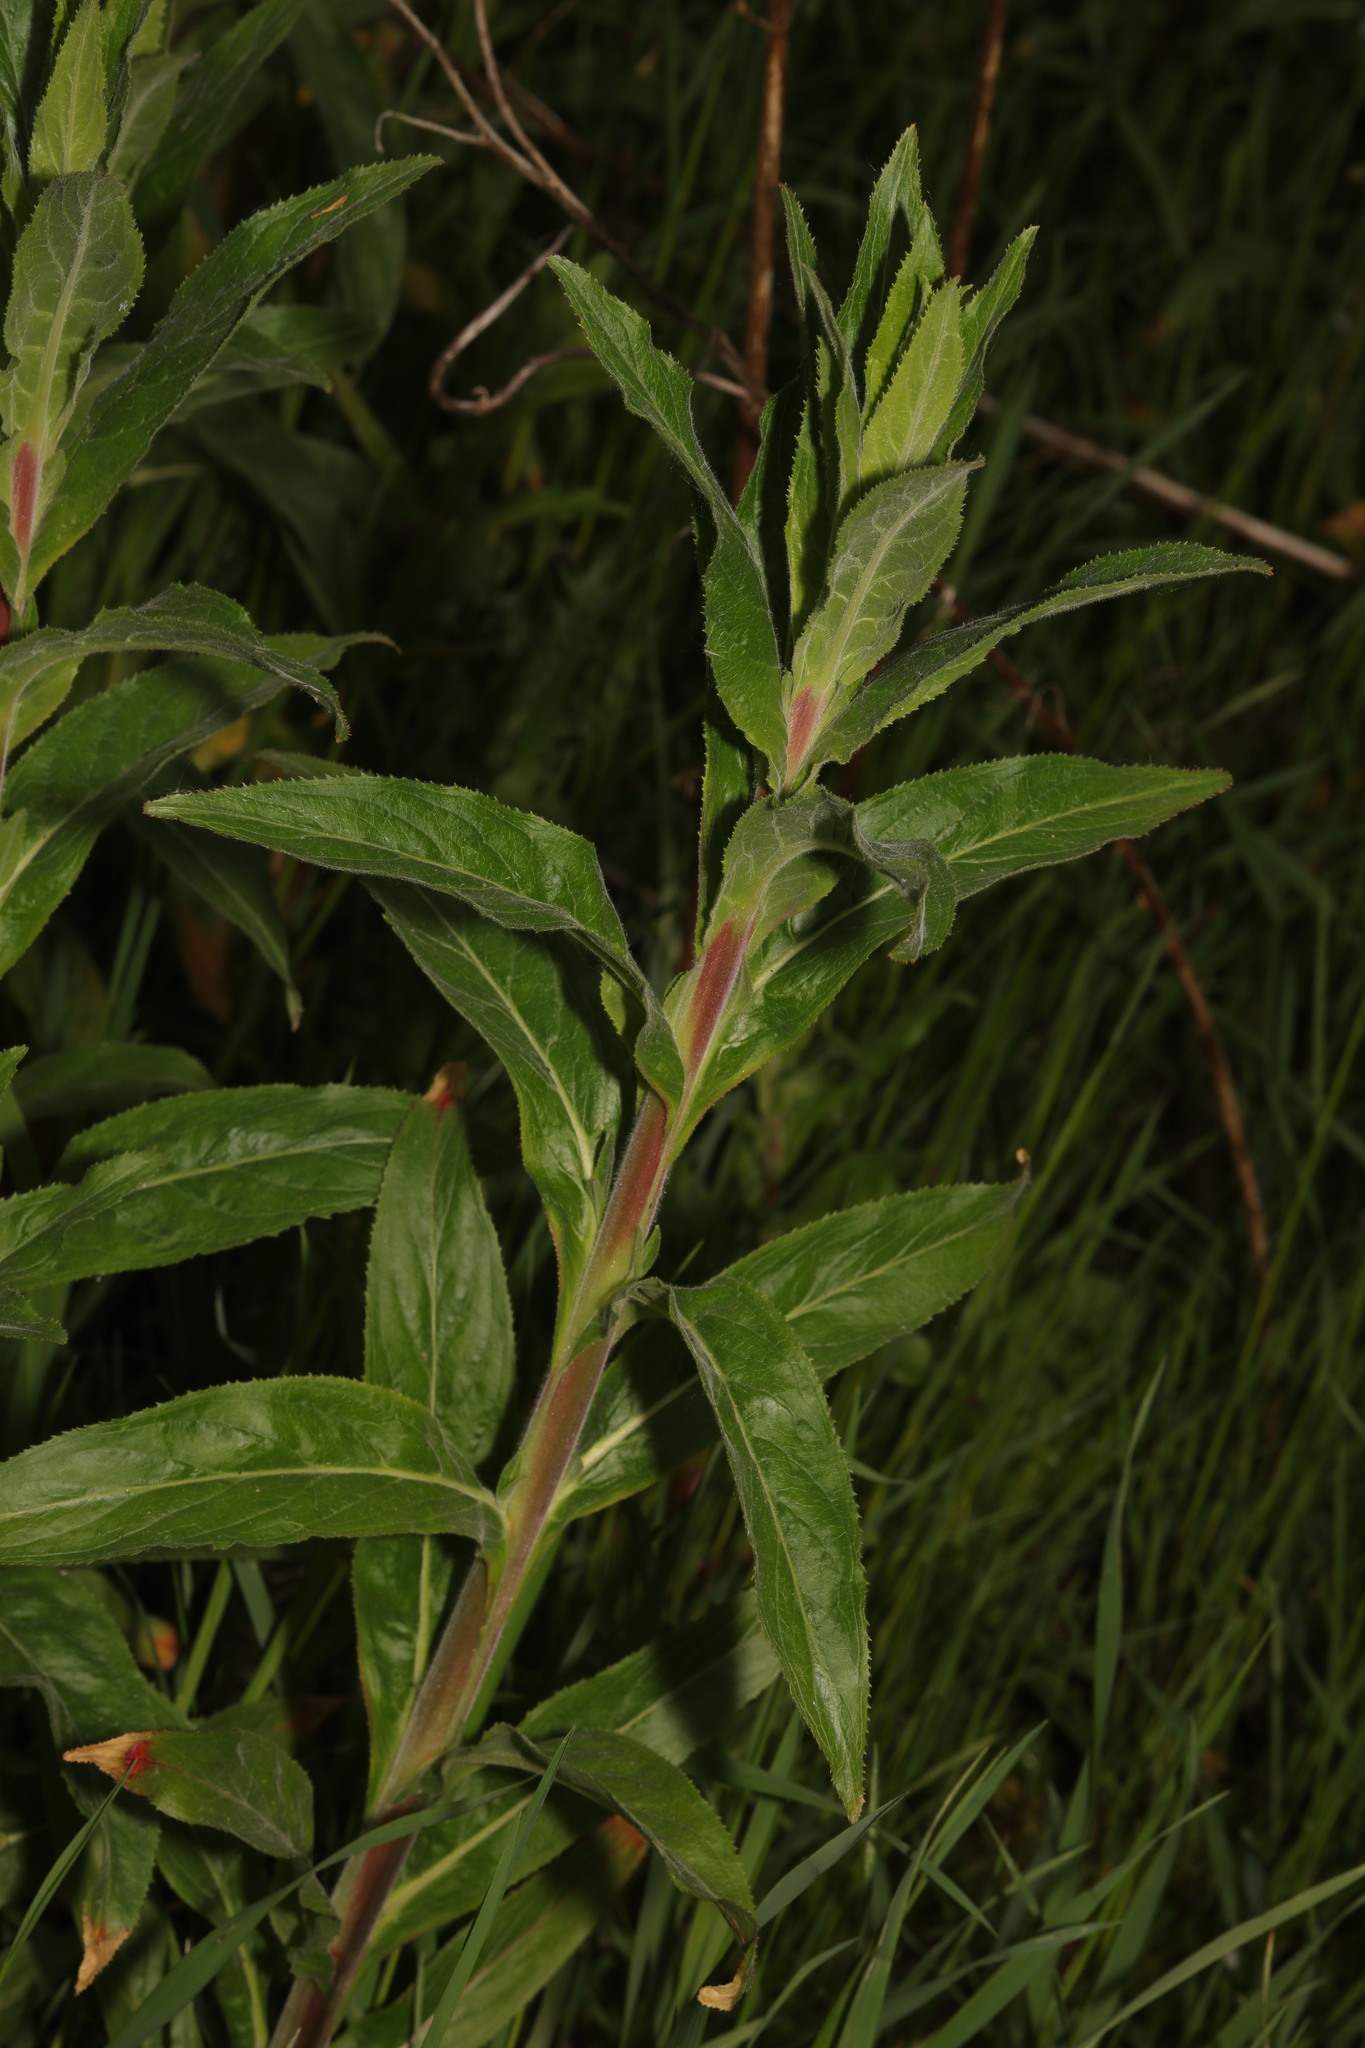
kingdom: Plantae
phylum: Tracheophyta
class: Magnoliopsida
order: Myrtales
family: Onagraceae
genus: Epilobium
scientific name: Epilobium hirsutum
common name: Great willowherb
